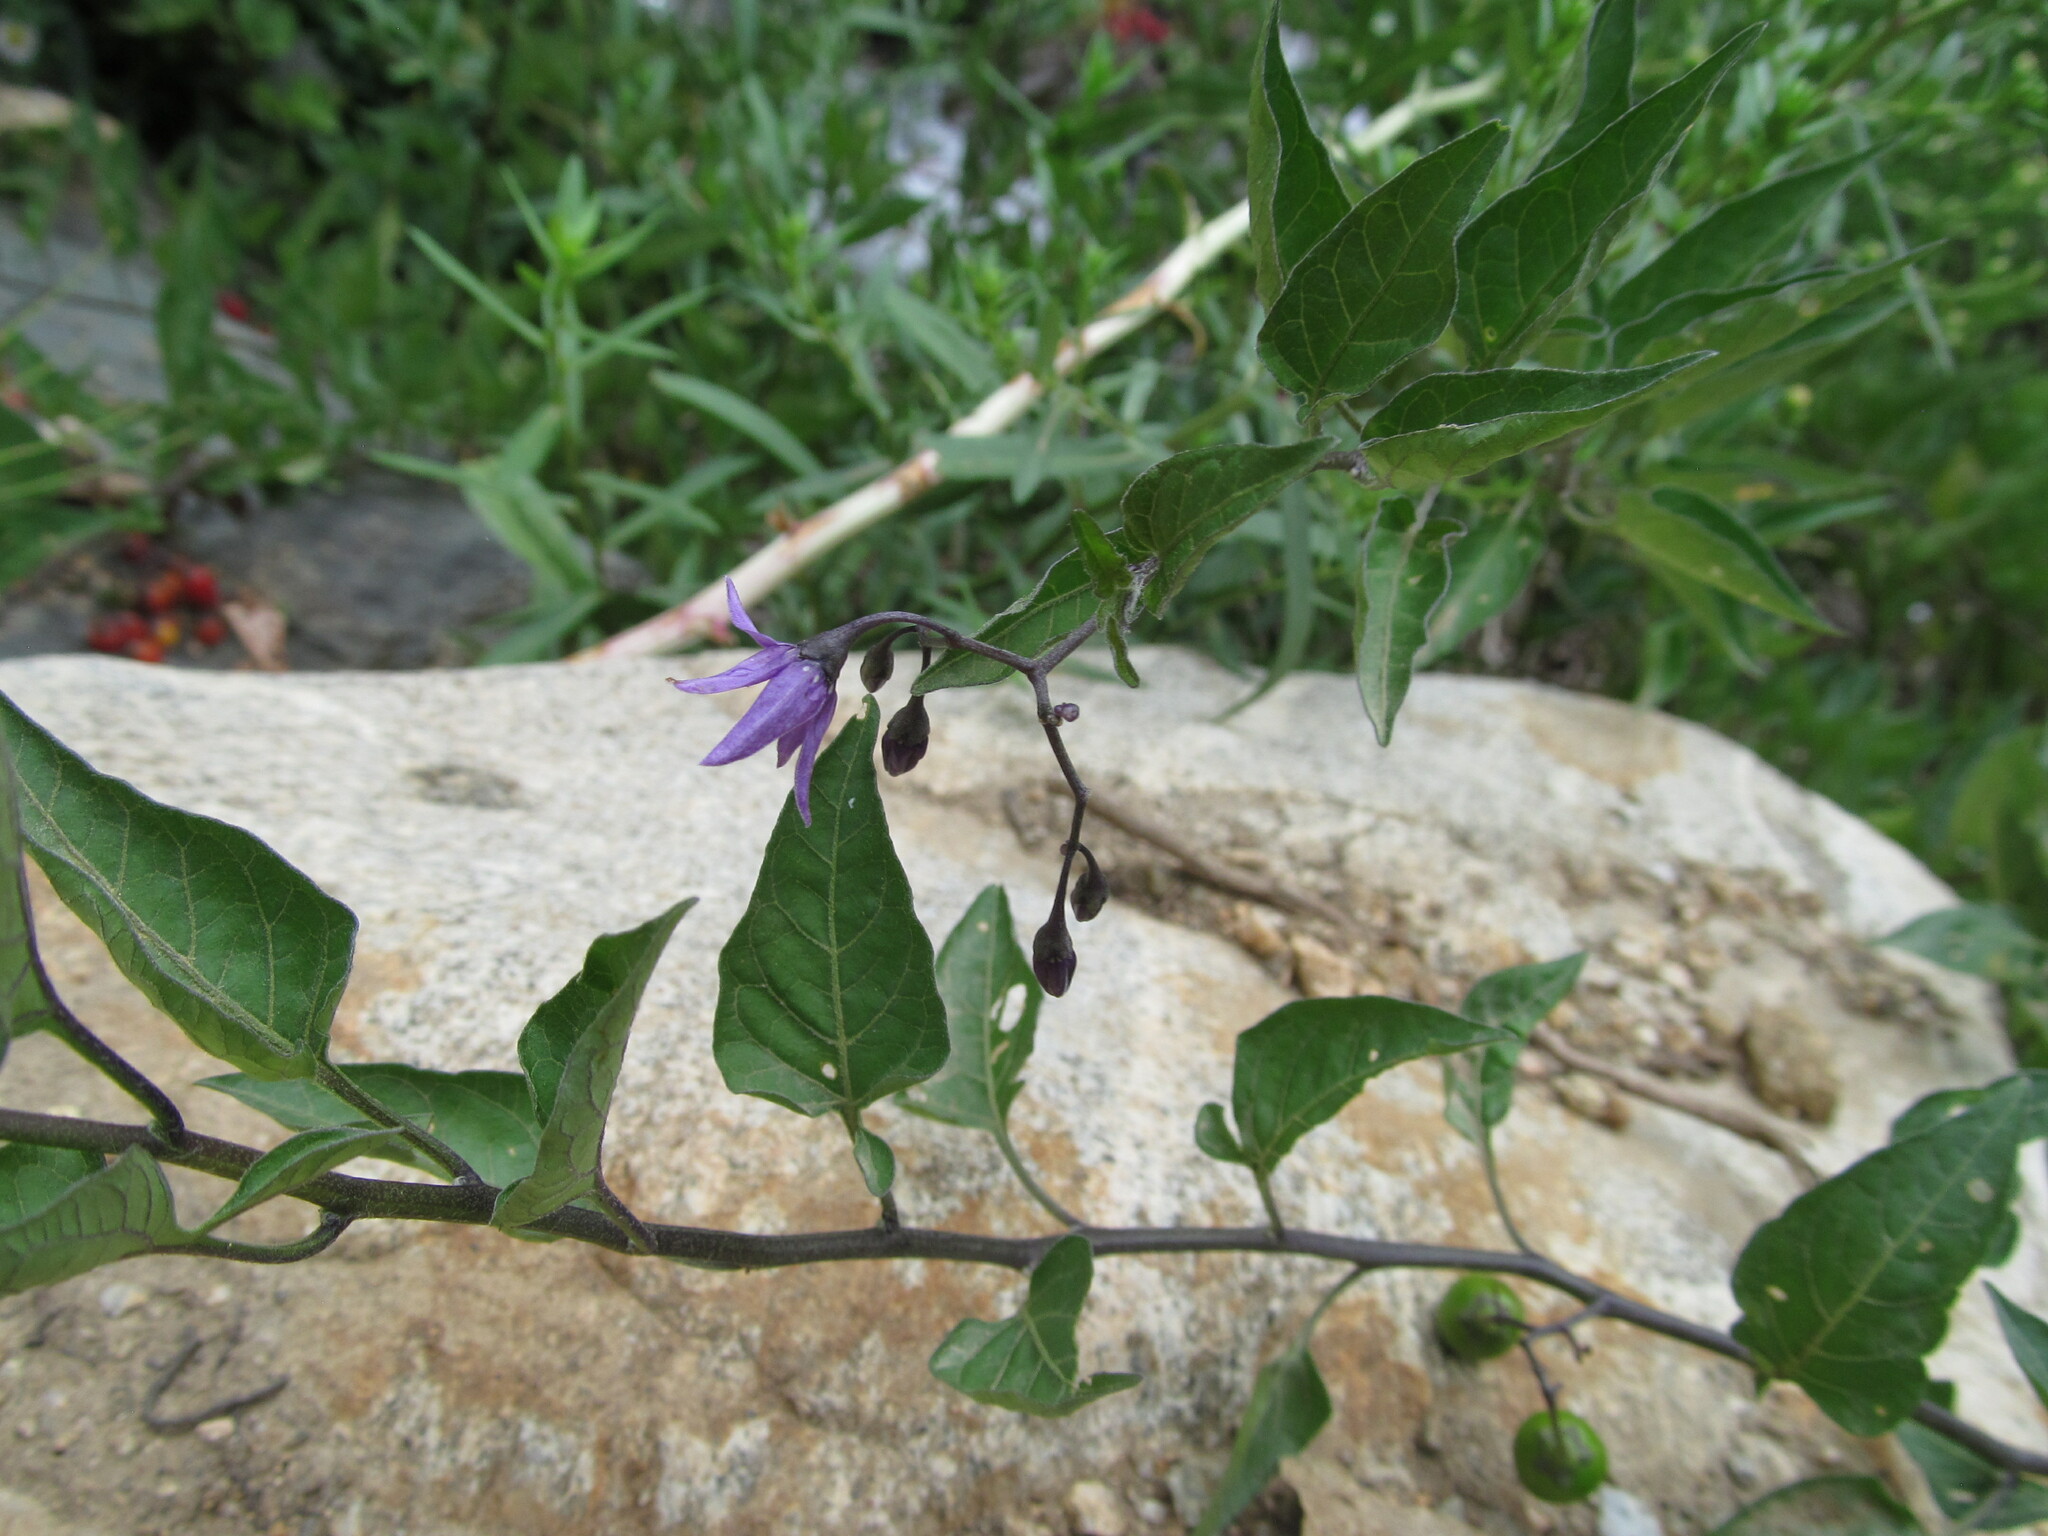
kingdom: Plantae
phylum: Tracheophyta
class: Magnoliopsida
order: Solanales
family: Solanaceae
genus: Solanum
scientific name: Solanum dulcamara
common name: Climbing nightshade
